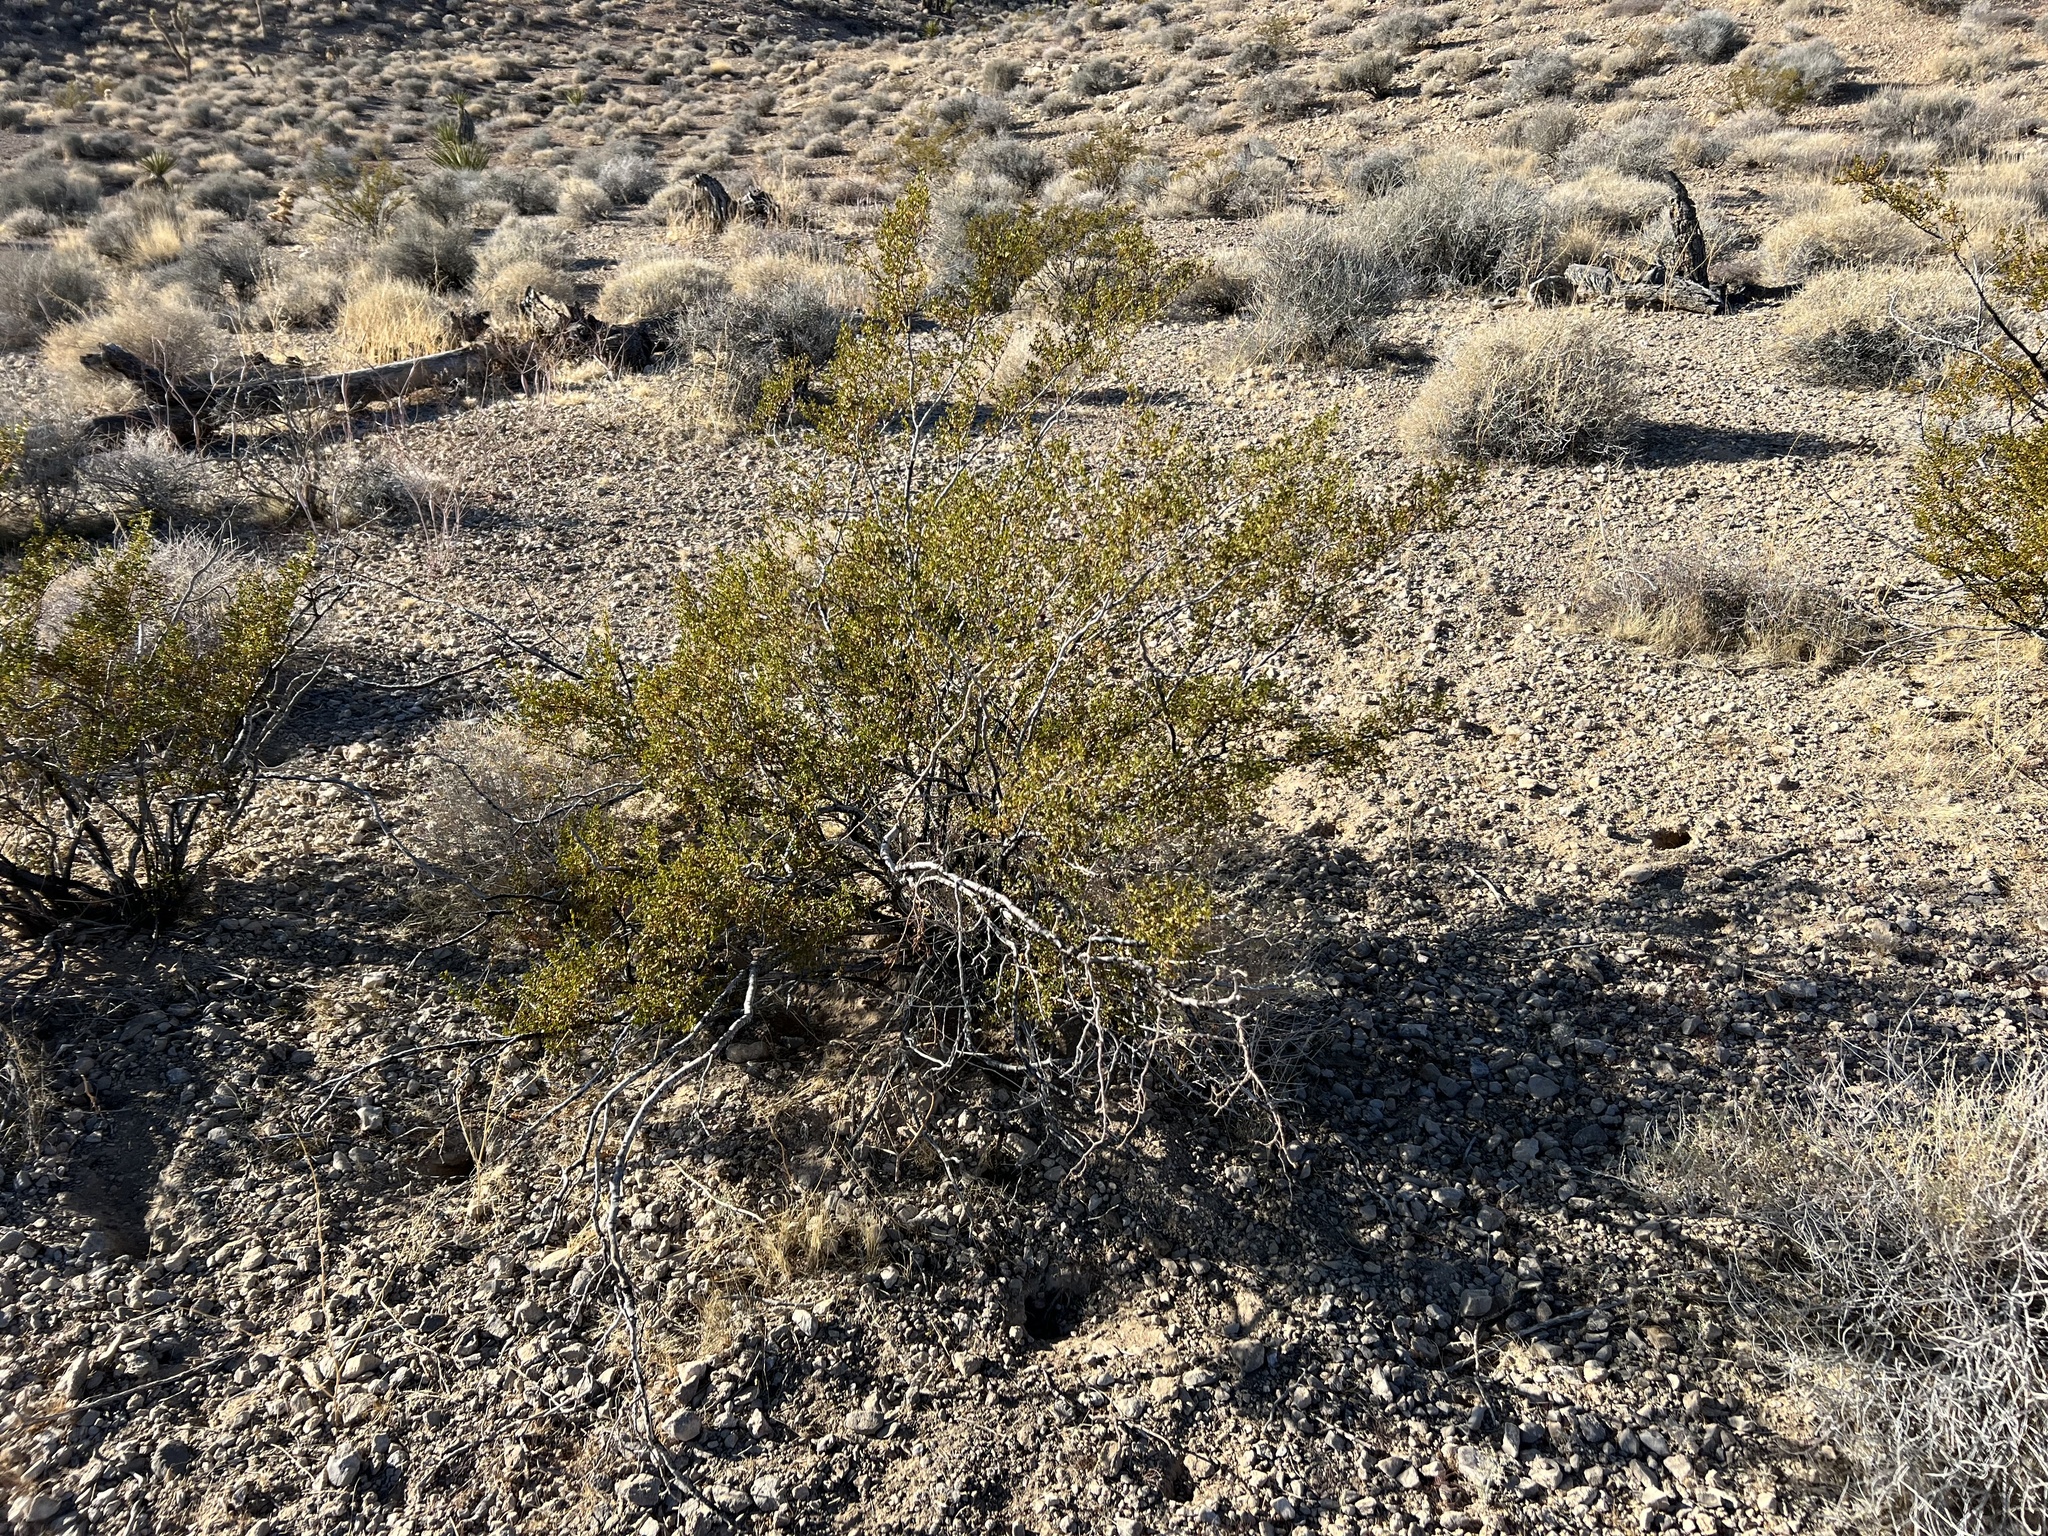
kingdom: Plantae
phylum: Tracheophyta
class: Magnoliopsida
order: Zygophyllales
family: Zygophyllaceae
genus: Larrea
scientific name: Larrea tridentata
